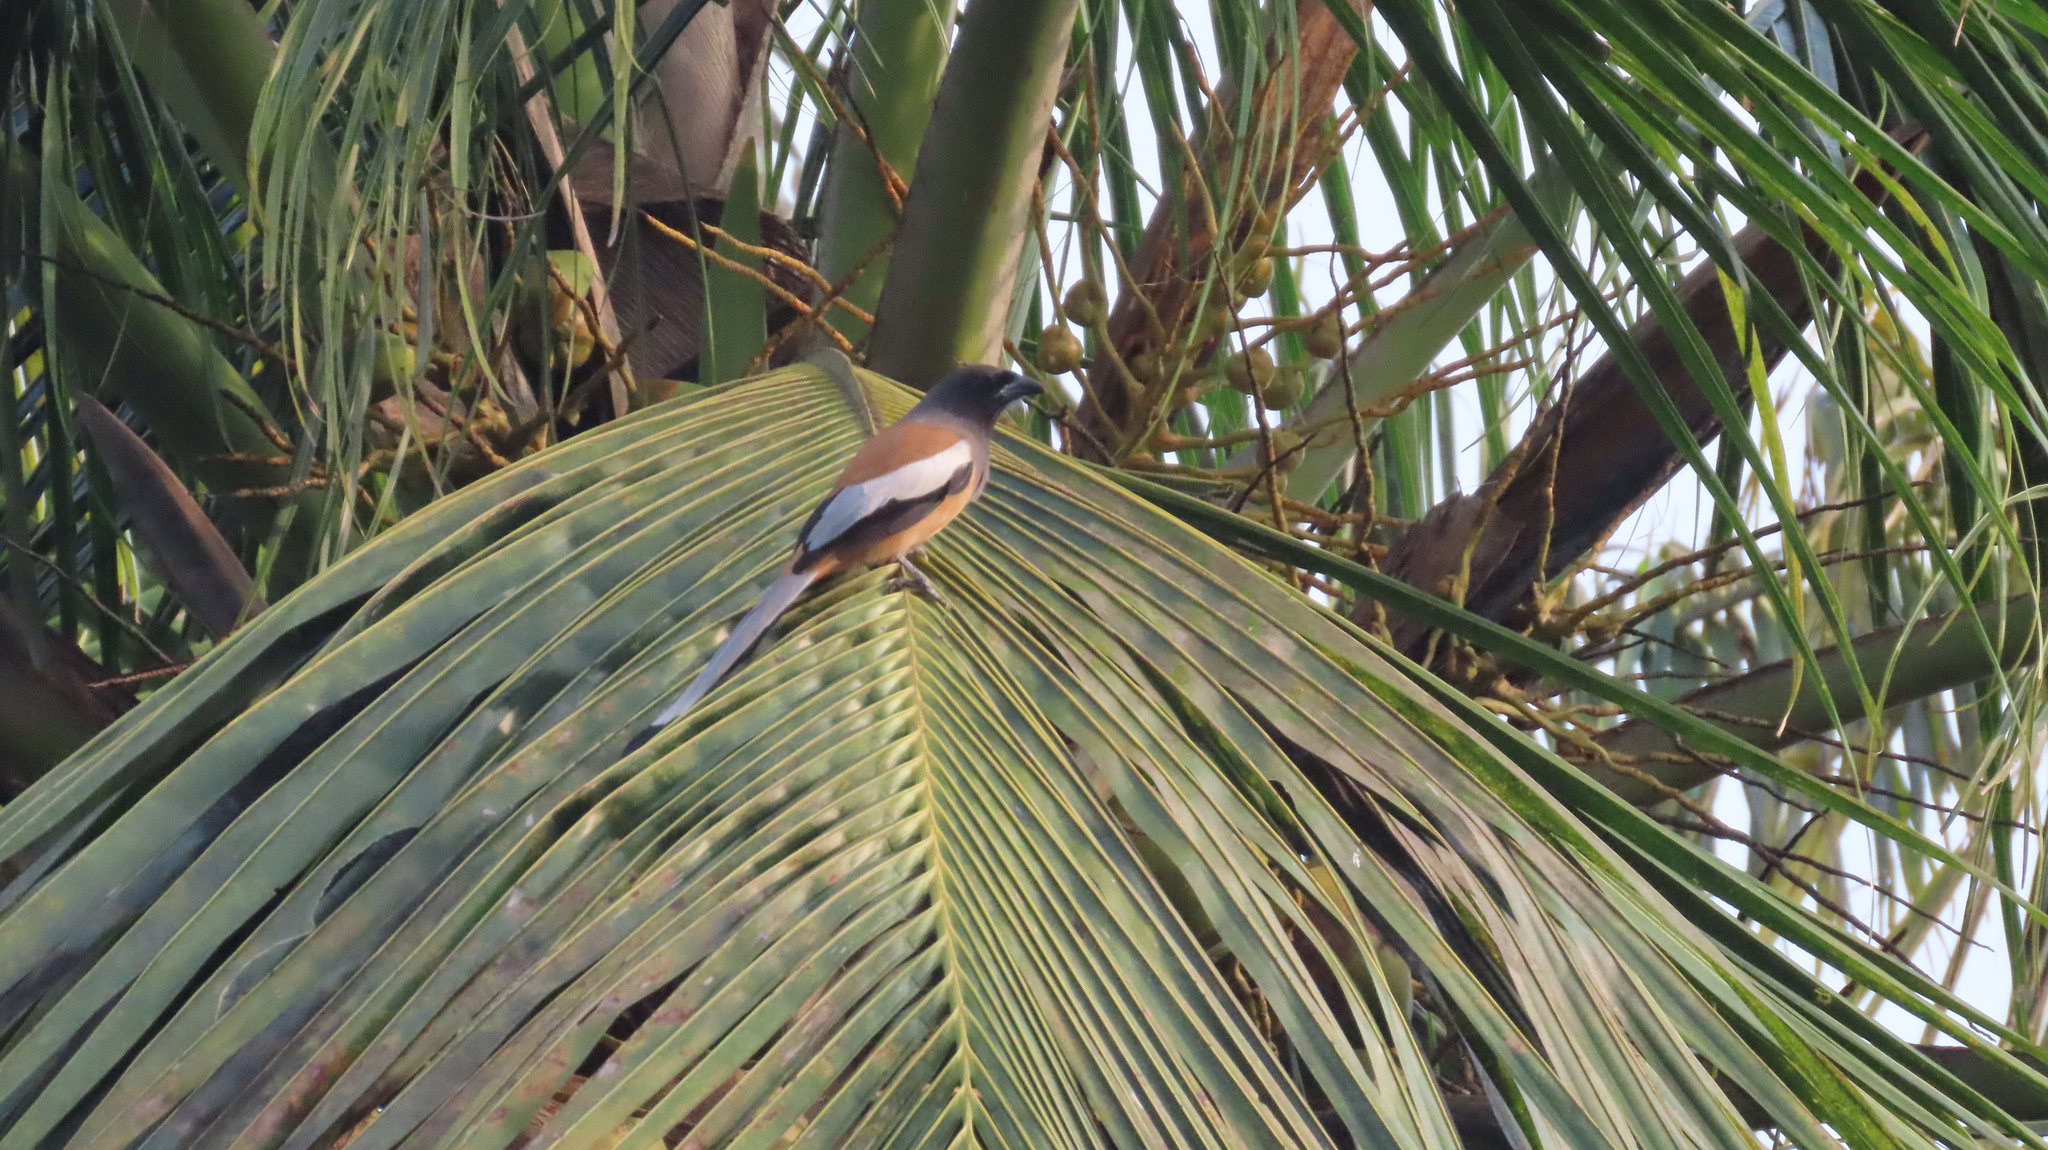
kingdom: Animalia
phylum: Chordata
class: Aves
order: Passeriformes
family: Corvidae
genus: Dendrocitta
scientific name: Dendrocitta vagabunda
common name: Rufous treepie
